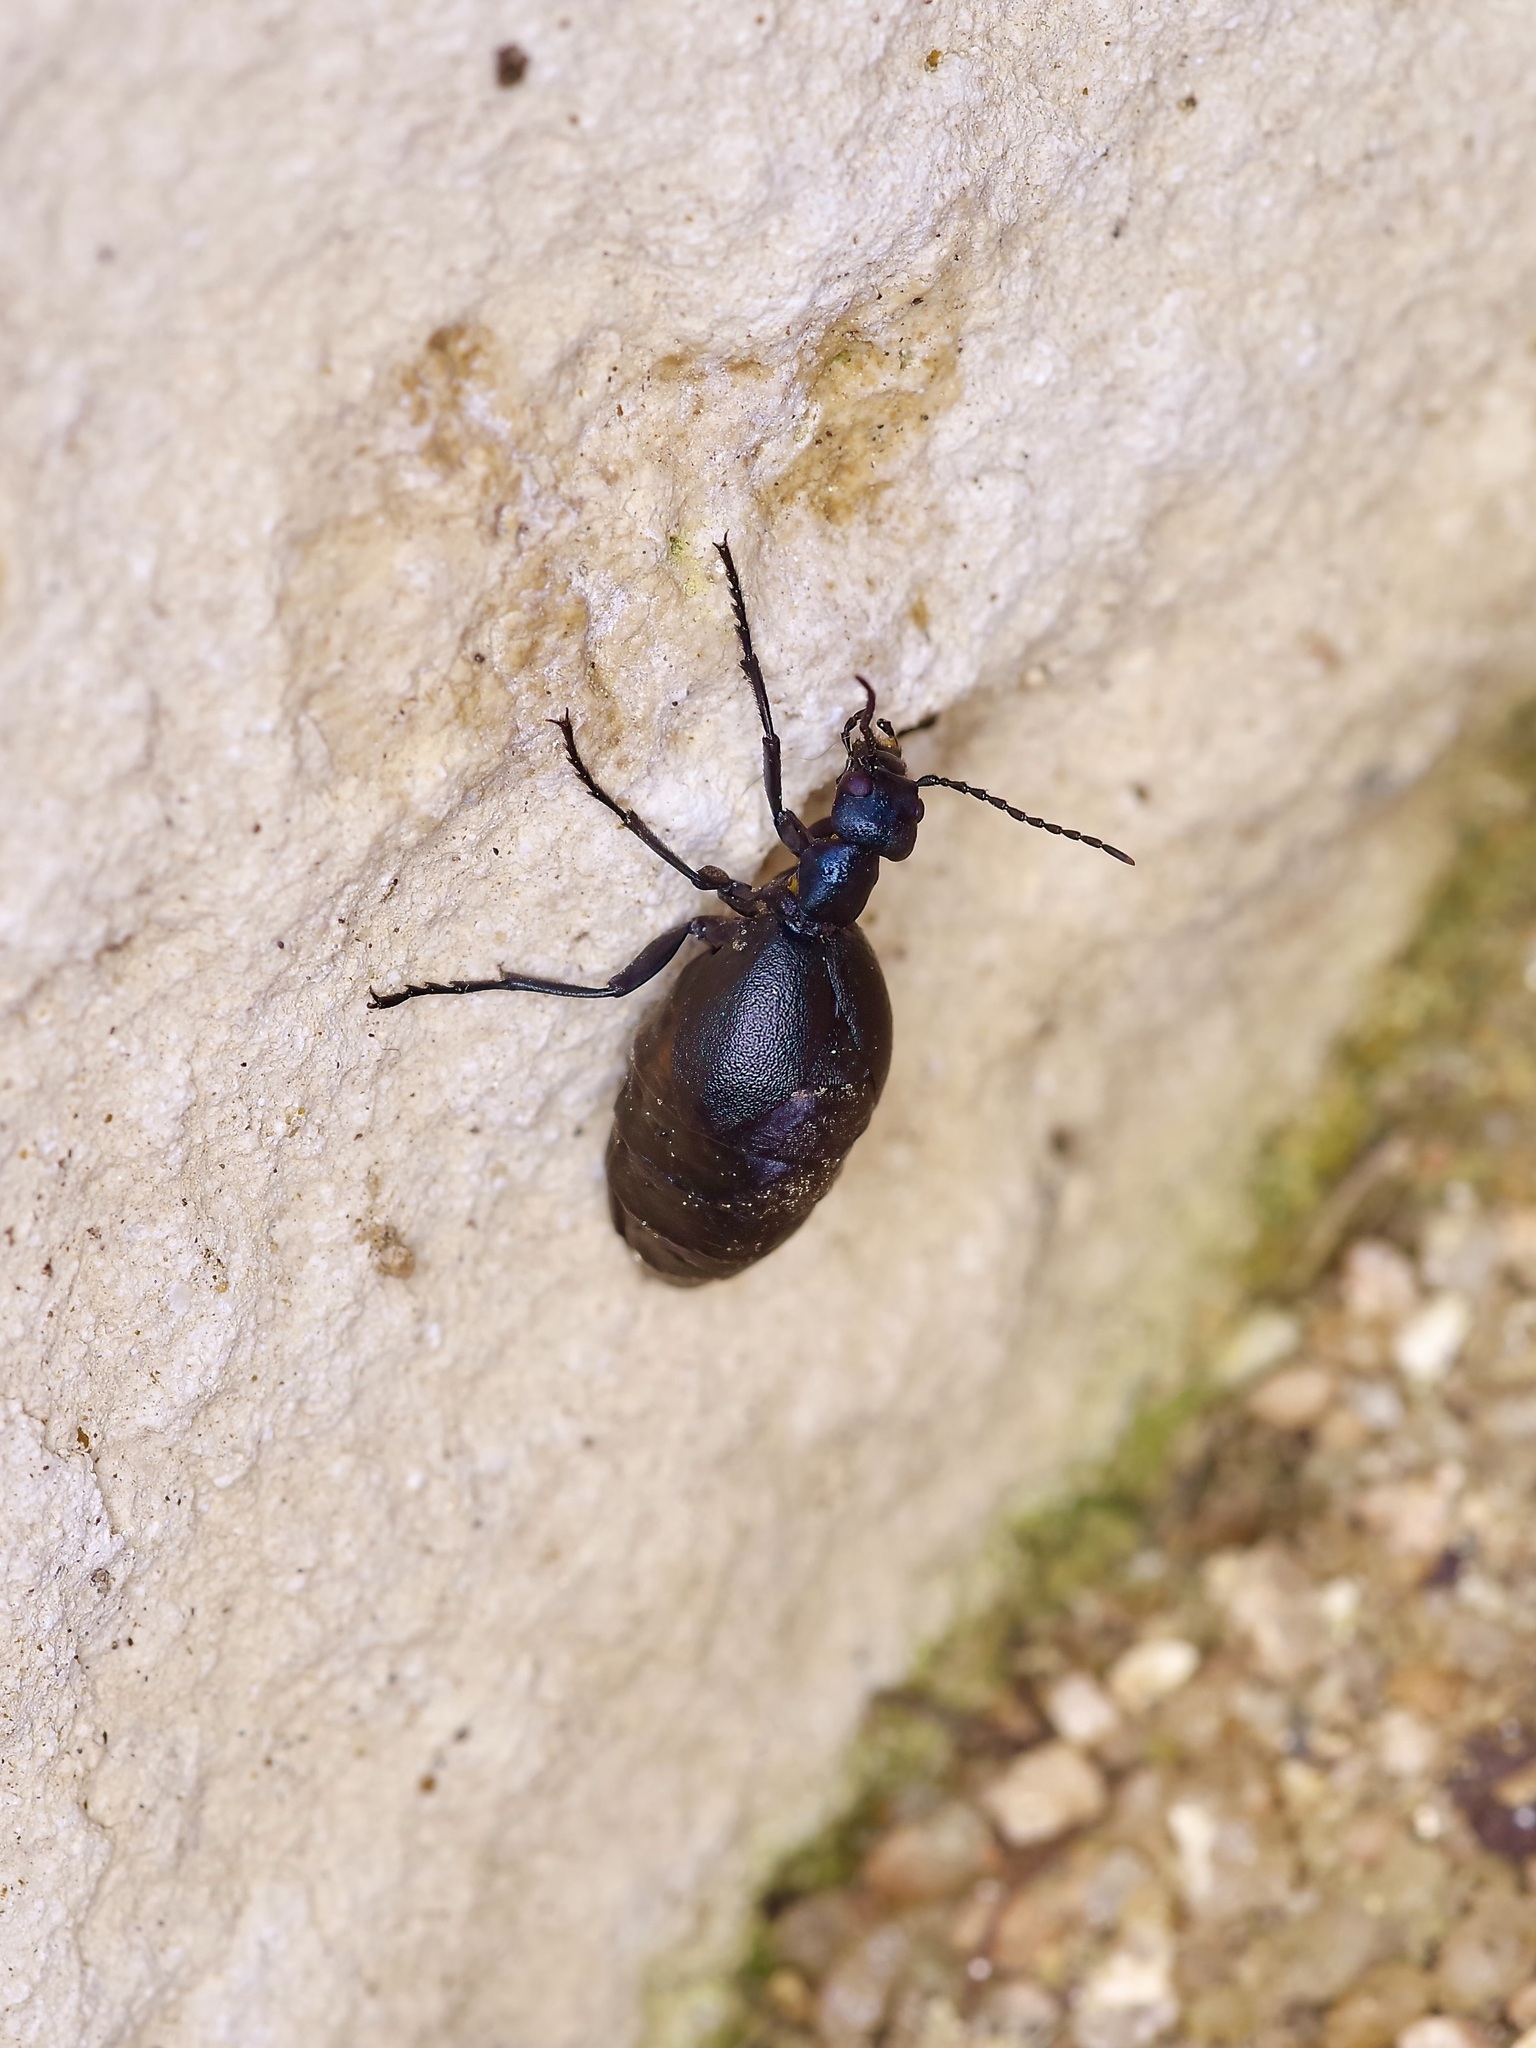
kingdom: Animalia
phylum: Arthropoda
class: Insecta
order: Coleoptera
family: Meloidae
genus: Meloe
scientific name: Meloe americanus
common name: Buttercup oil beetle
